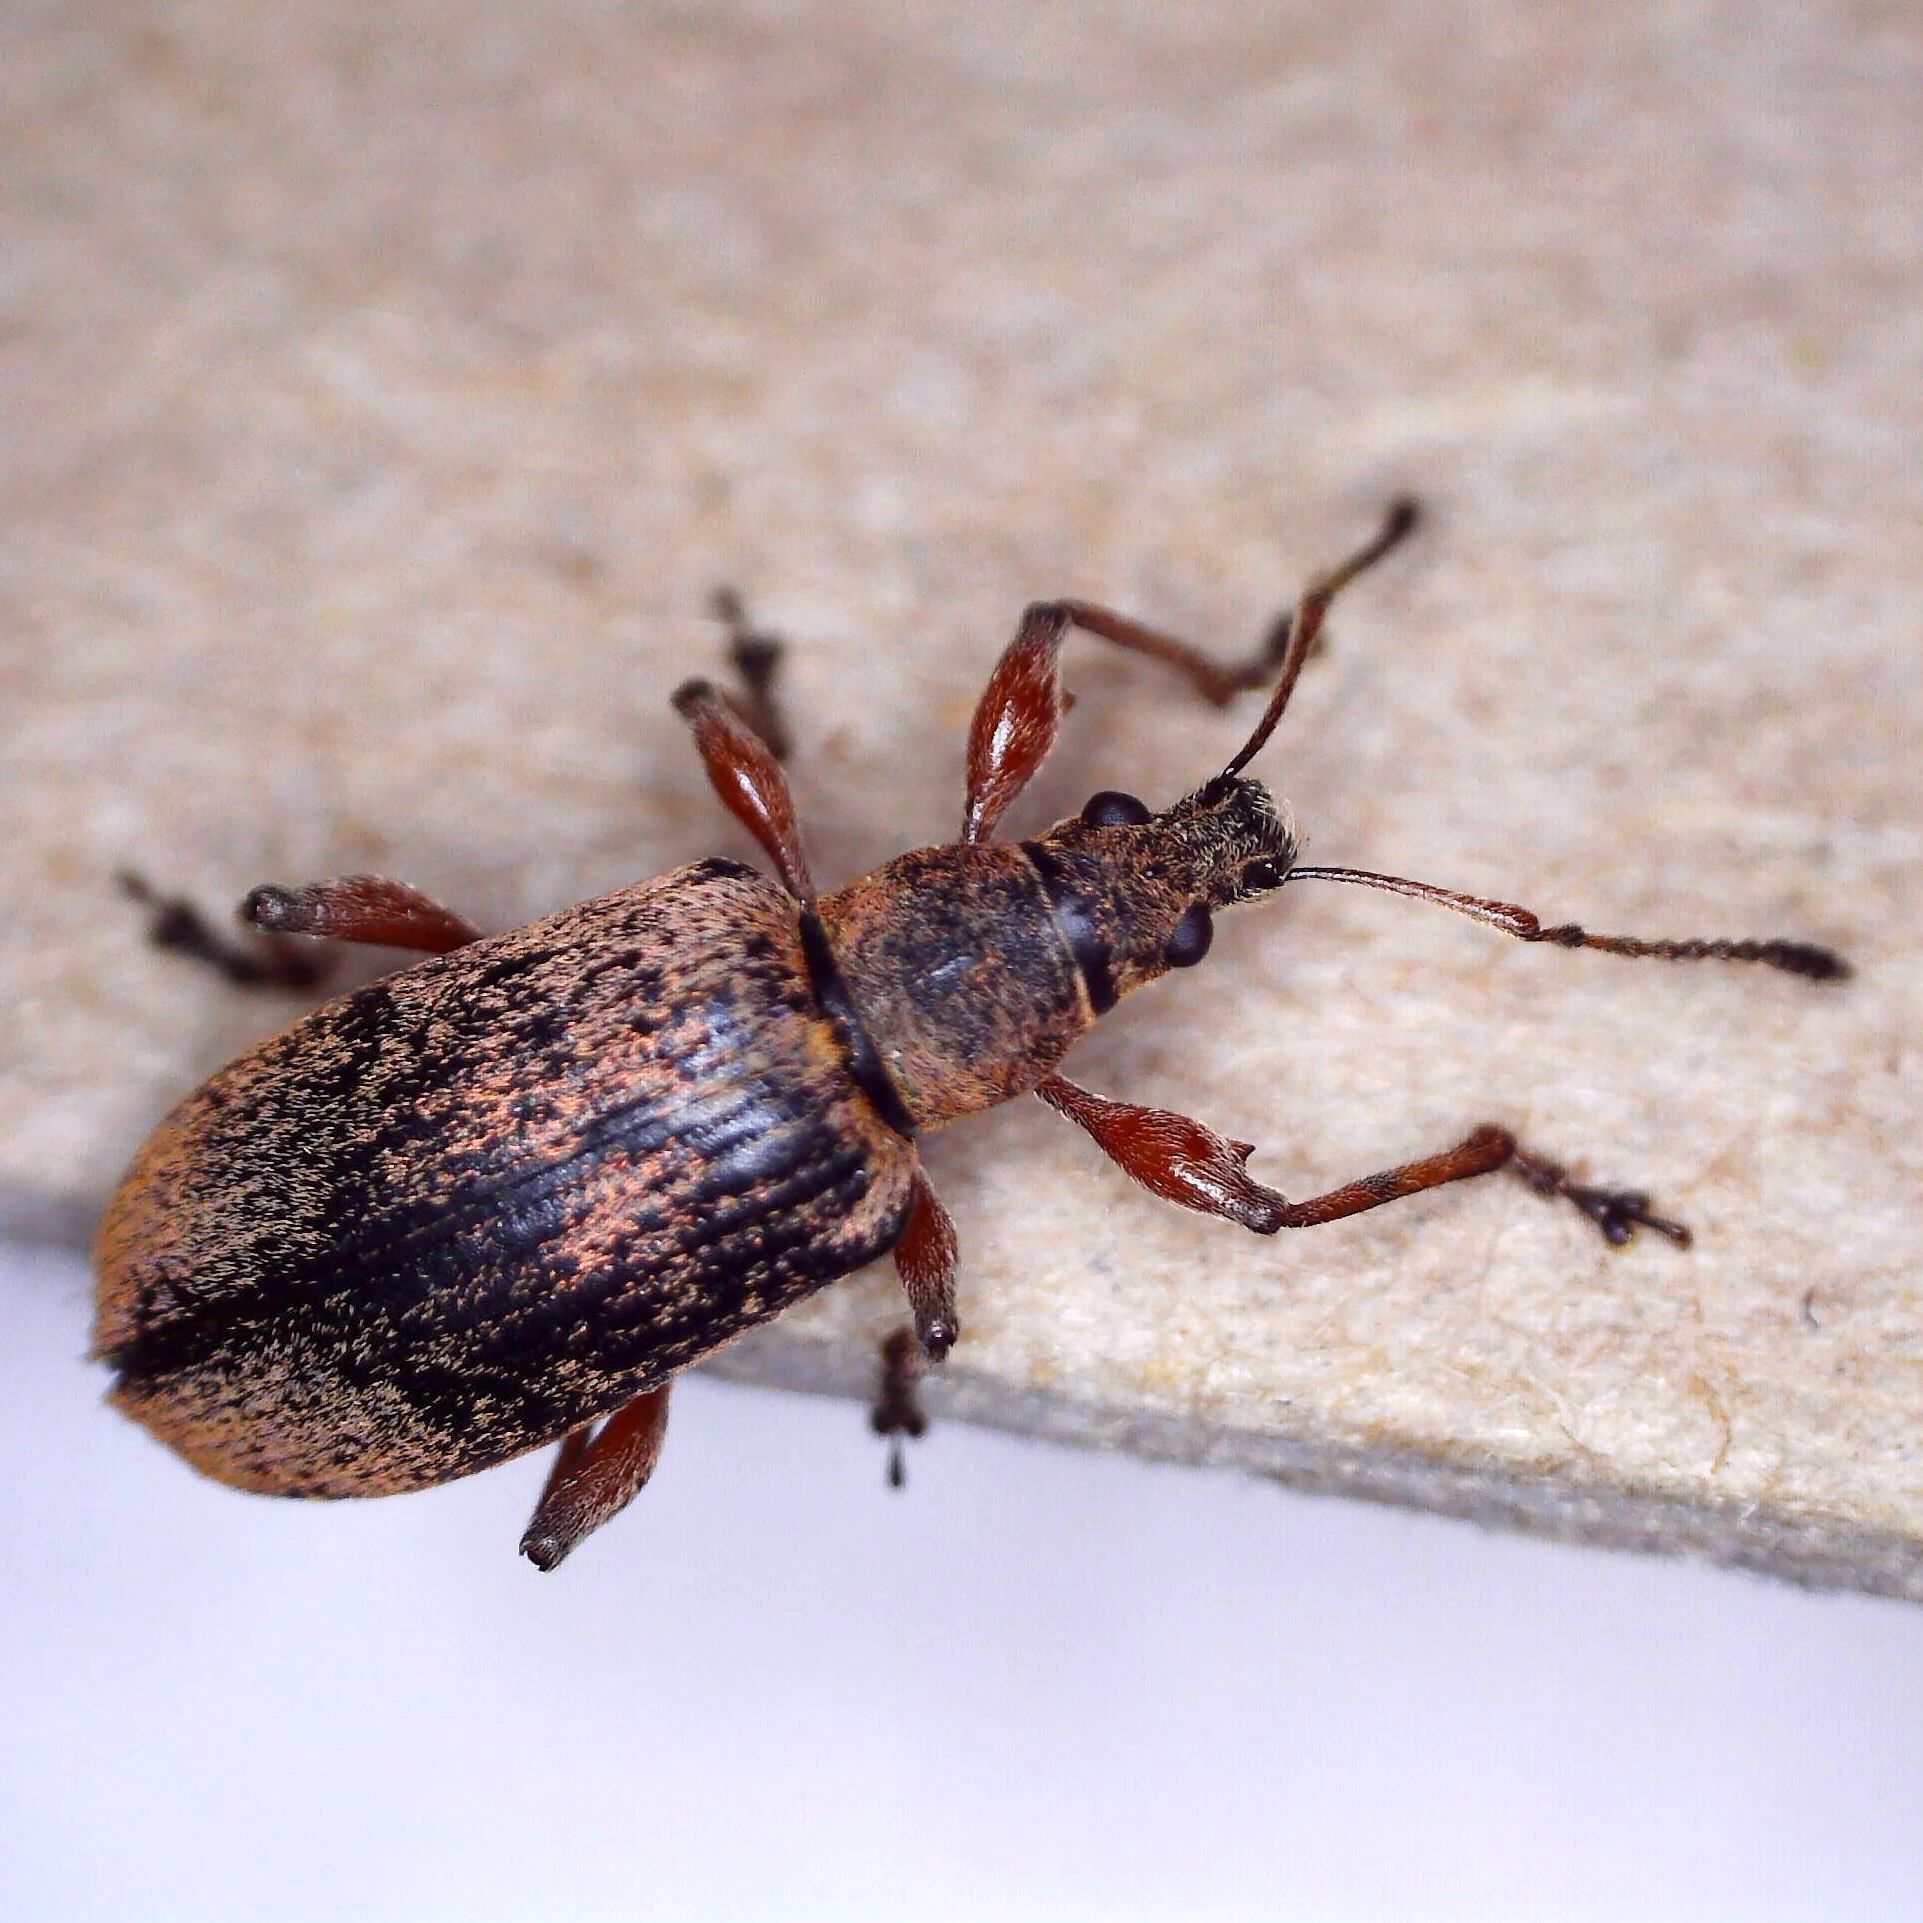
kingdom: Animalia
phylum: Arthropoda
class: Insecta
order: Coleoptera
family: Curculionidae
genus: Phyllobius
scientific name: Phyllobius glaucus
